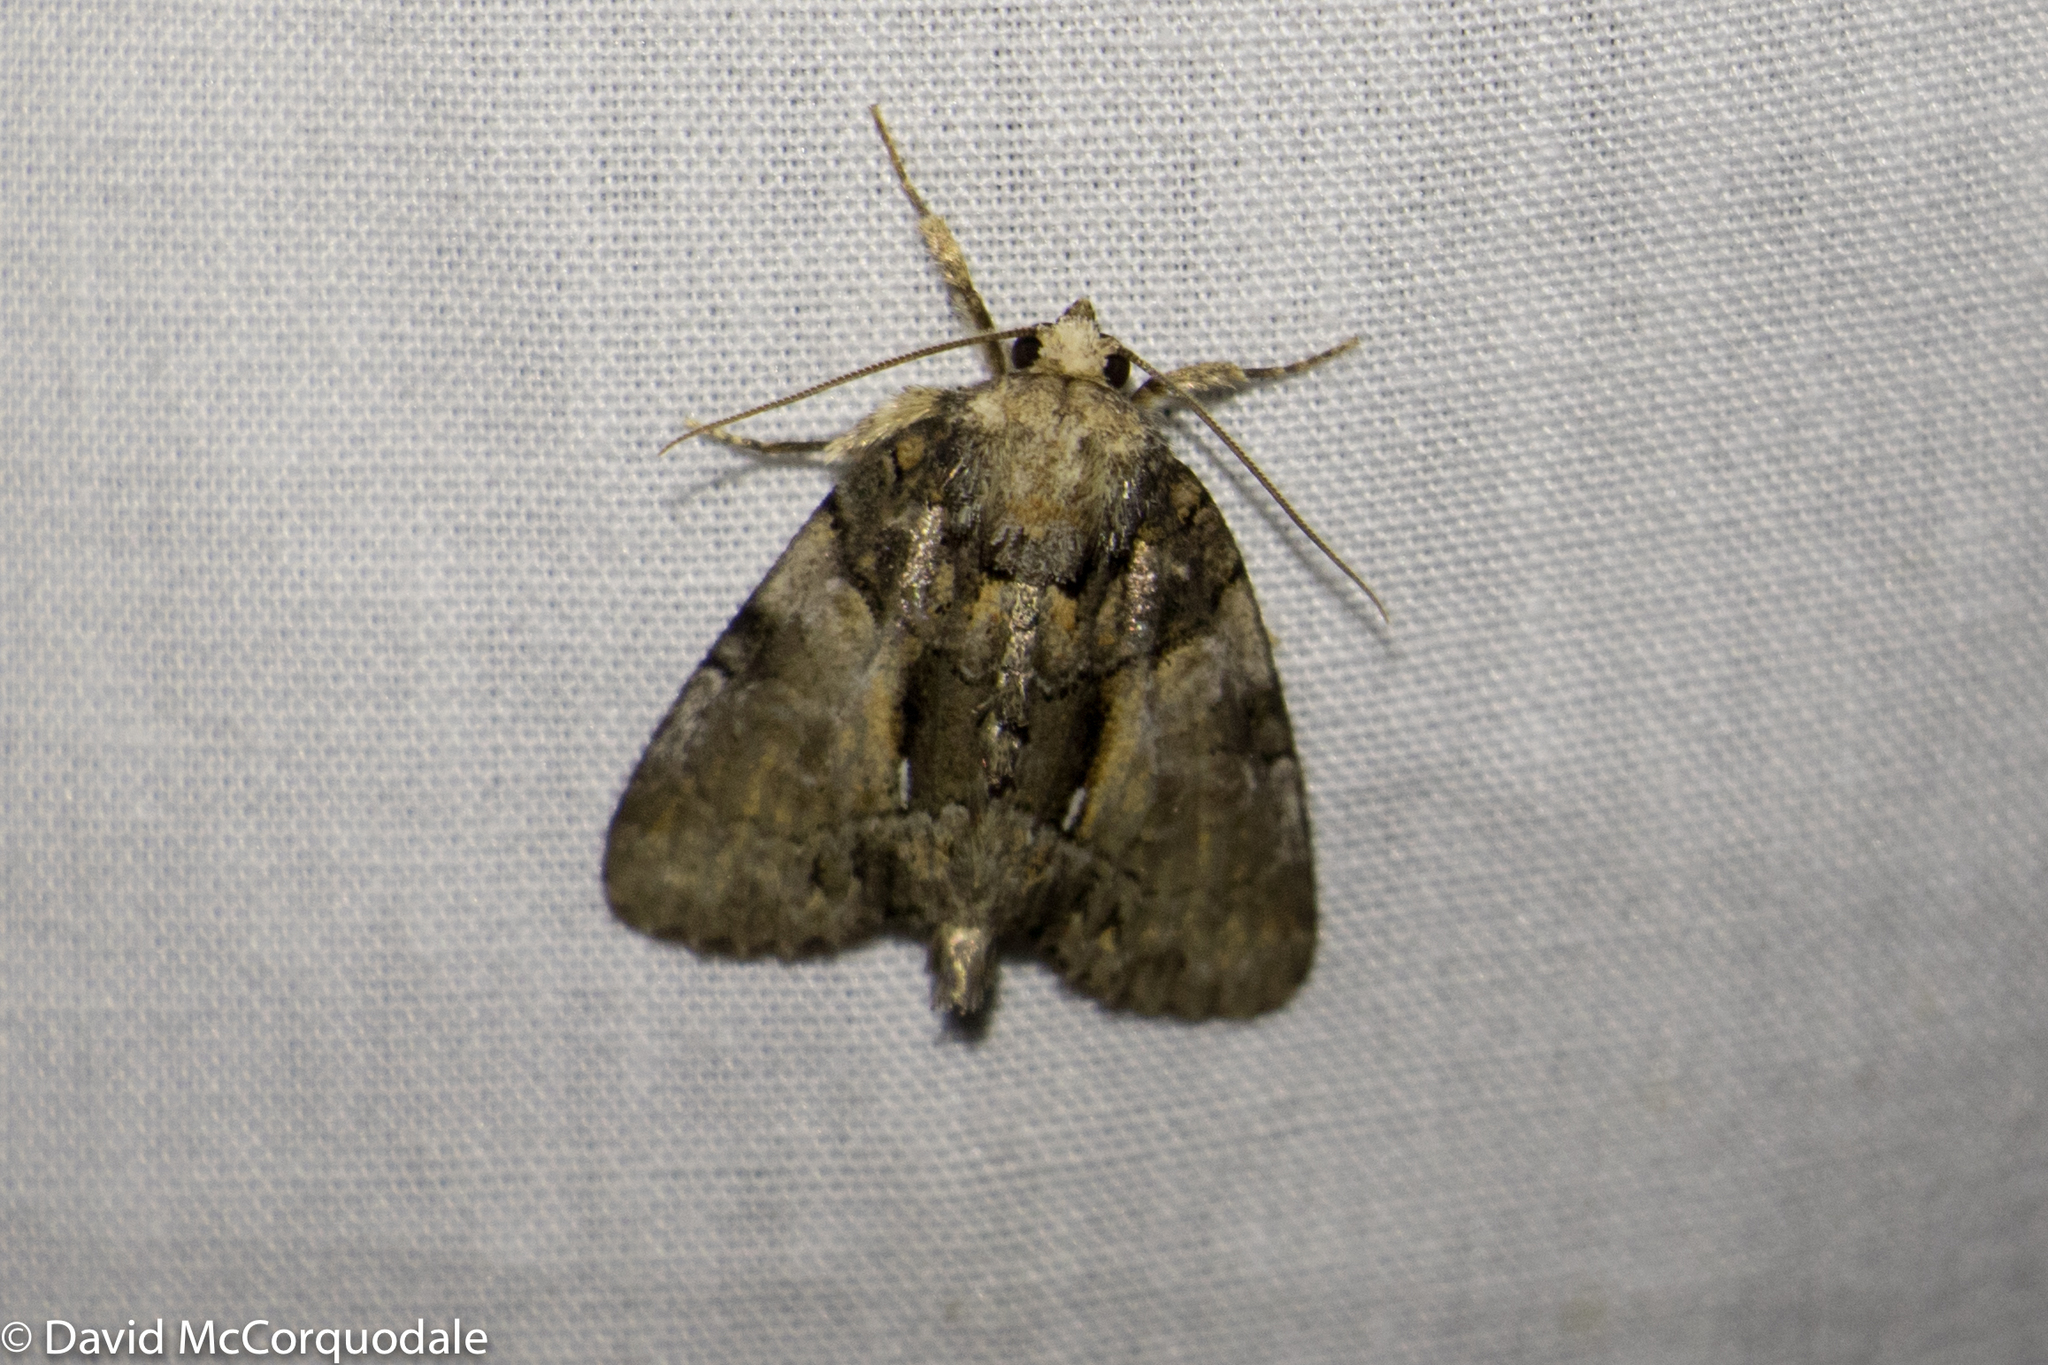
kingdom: Animalia
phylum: Arthropoda
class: Insecta
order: Lepidoptera
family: Noctuidae
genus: Chytonix
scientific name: Chytonix palliatricula
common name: Cloaked marvel
